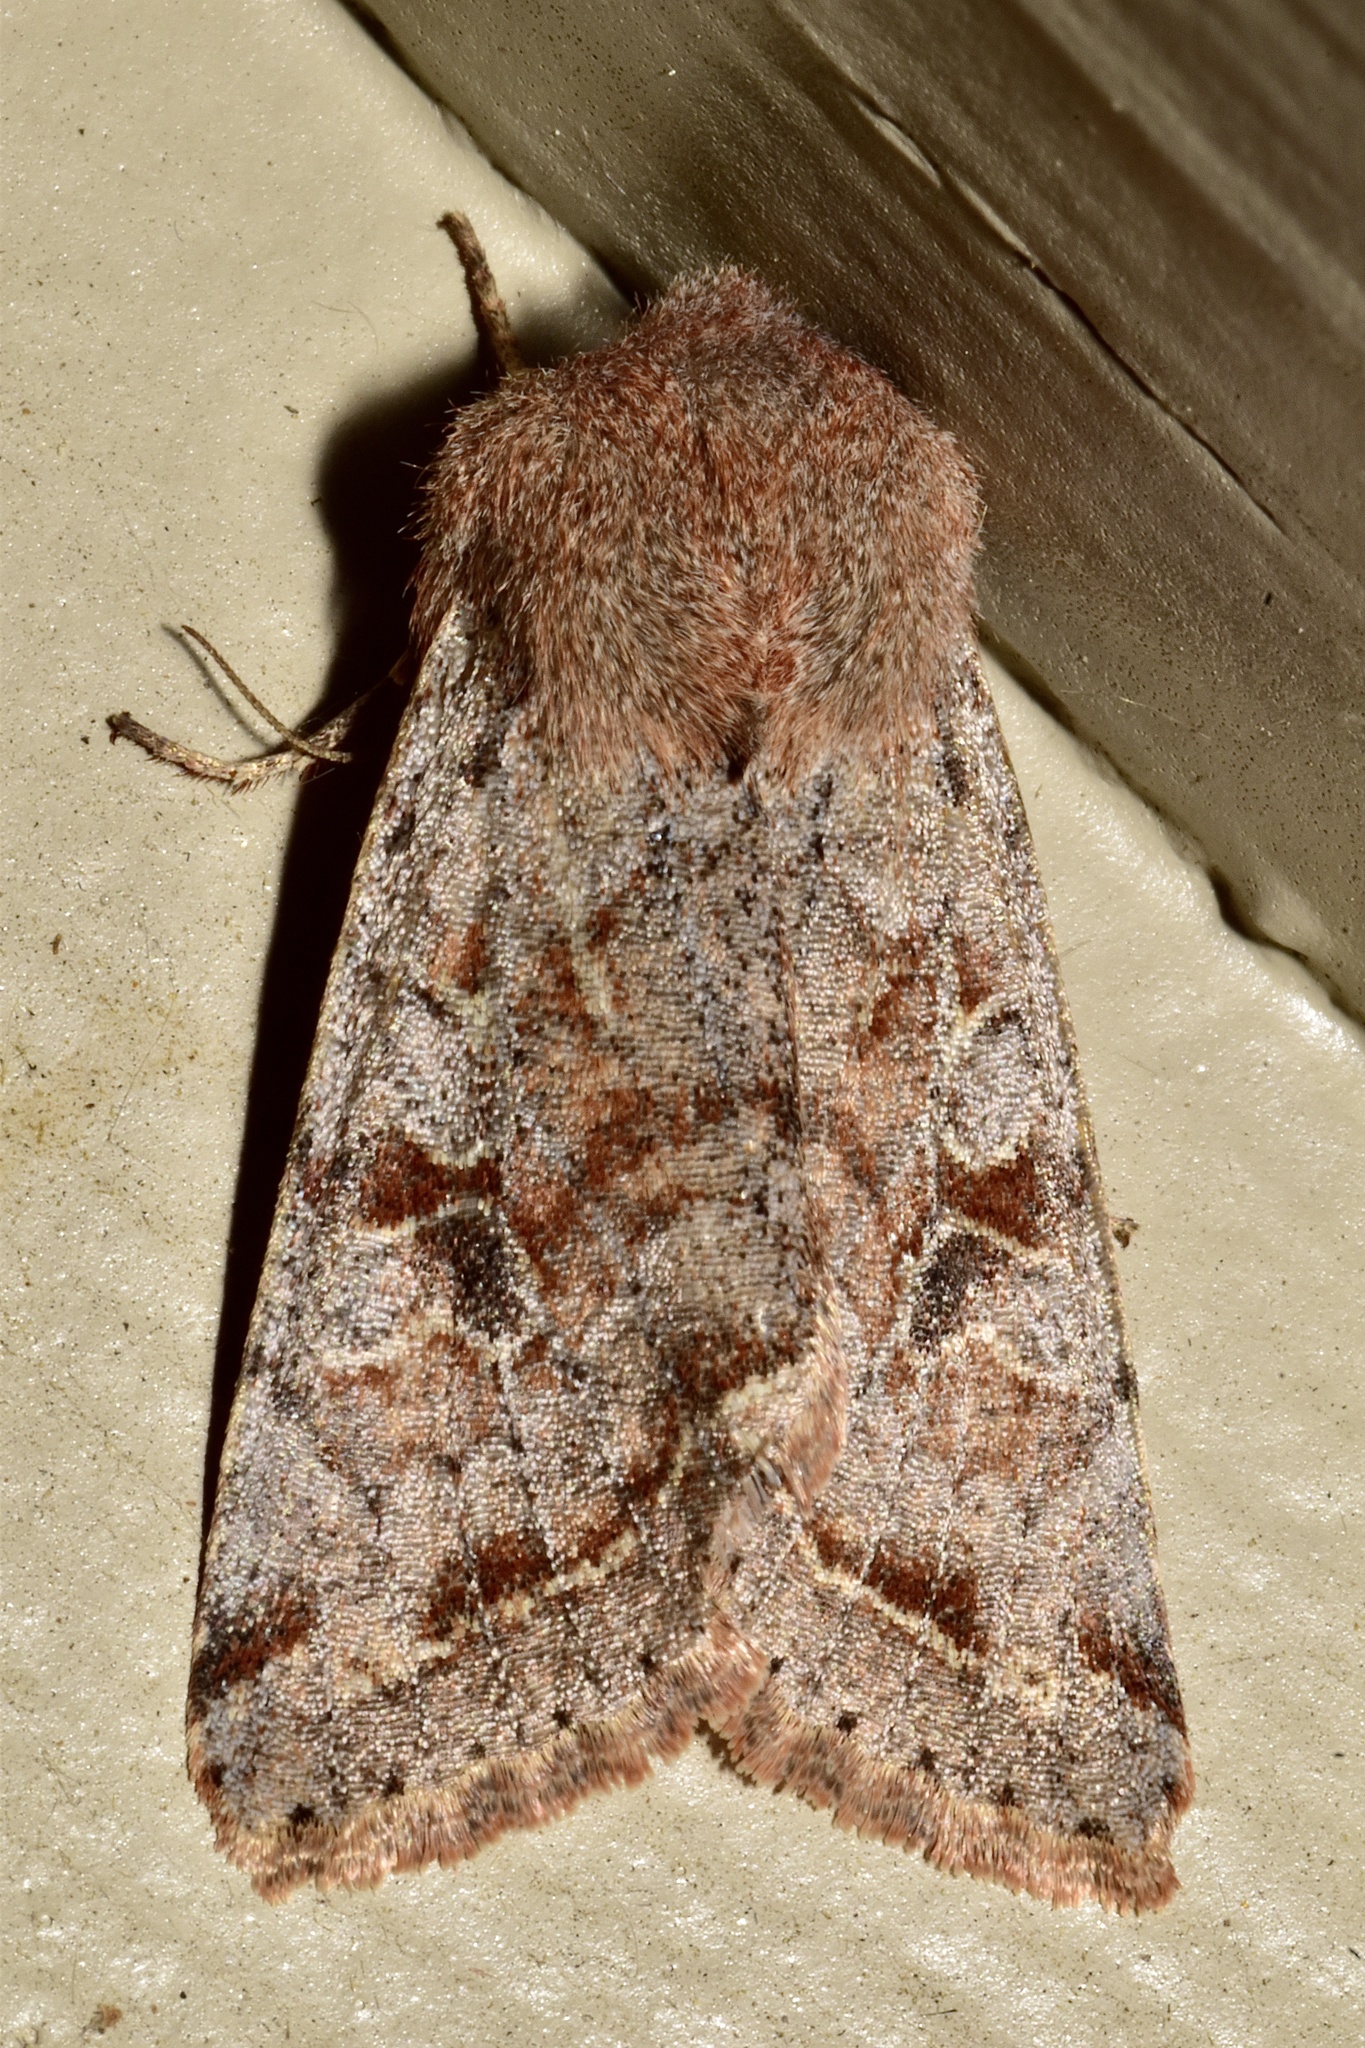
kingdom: Animalia
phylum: Arthropoda
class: Insecta
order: Lepidoptera
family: Noctuidae
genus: Orthosia
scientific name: Orthosia hibisci
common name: Green fruitworm
